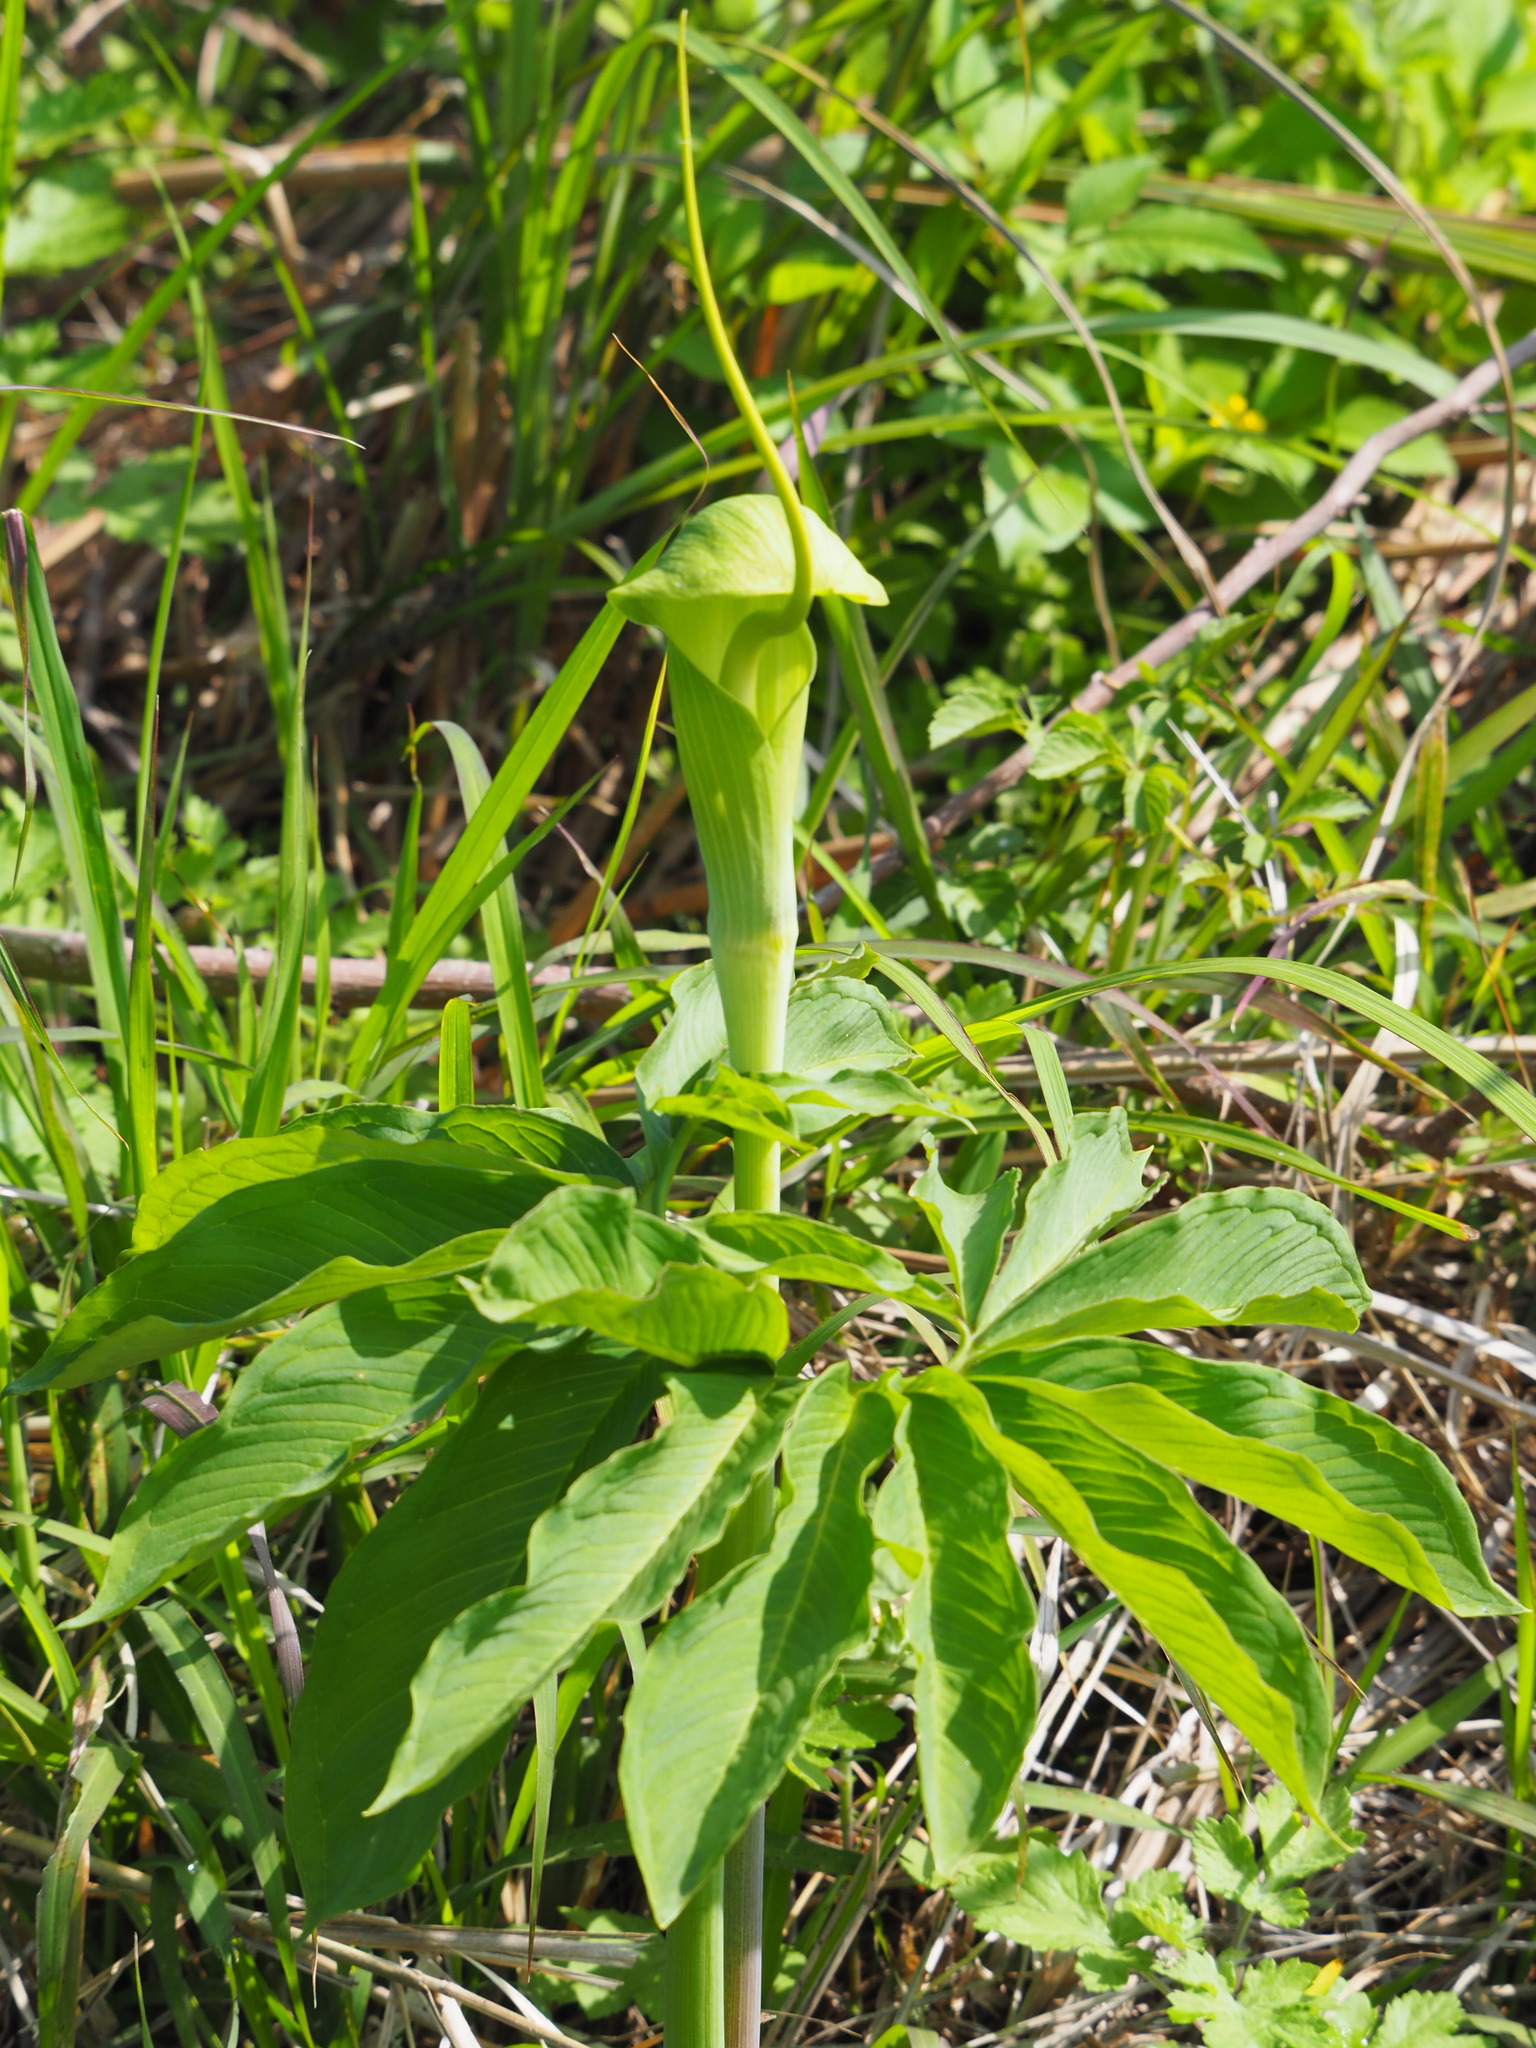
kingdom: Plantae
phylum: Tracheophyta
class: Liliopsida
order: Alismatales
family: Araceae
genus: Arisaema
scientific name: Arisaema heterophyllum
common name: Dancing crane cobra lily
